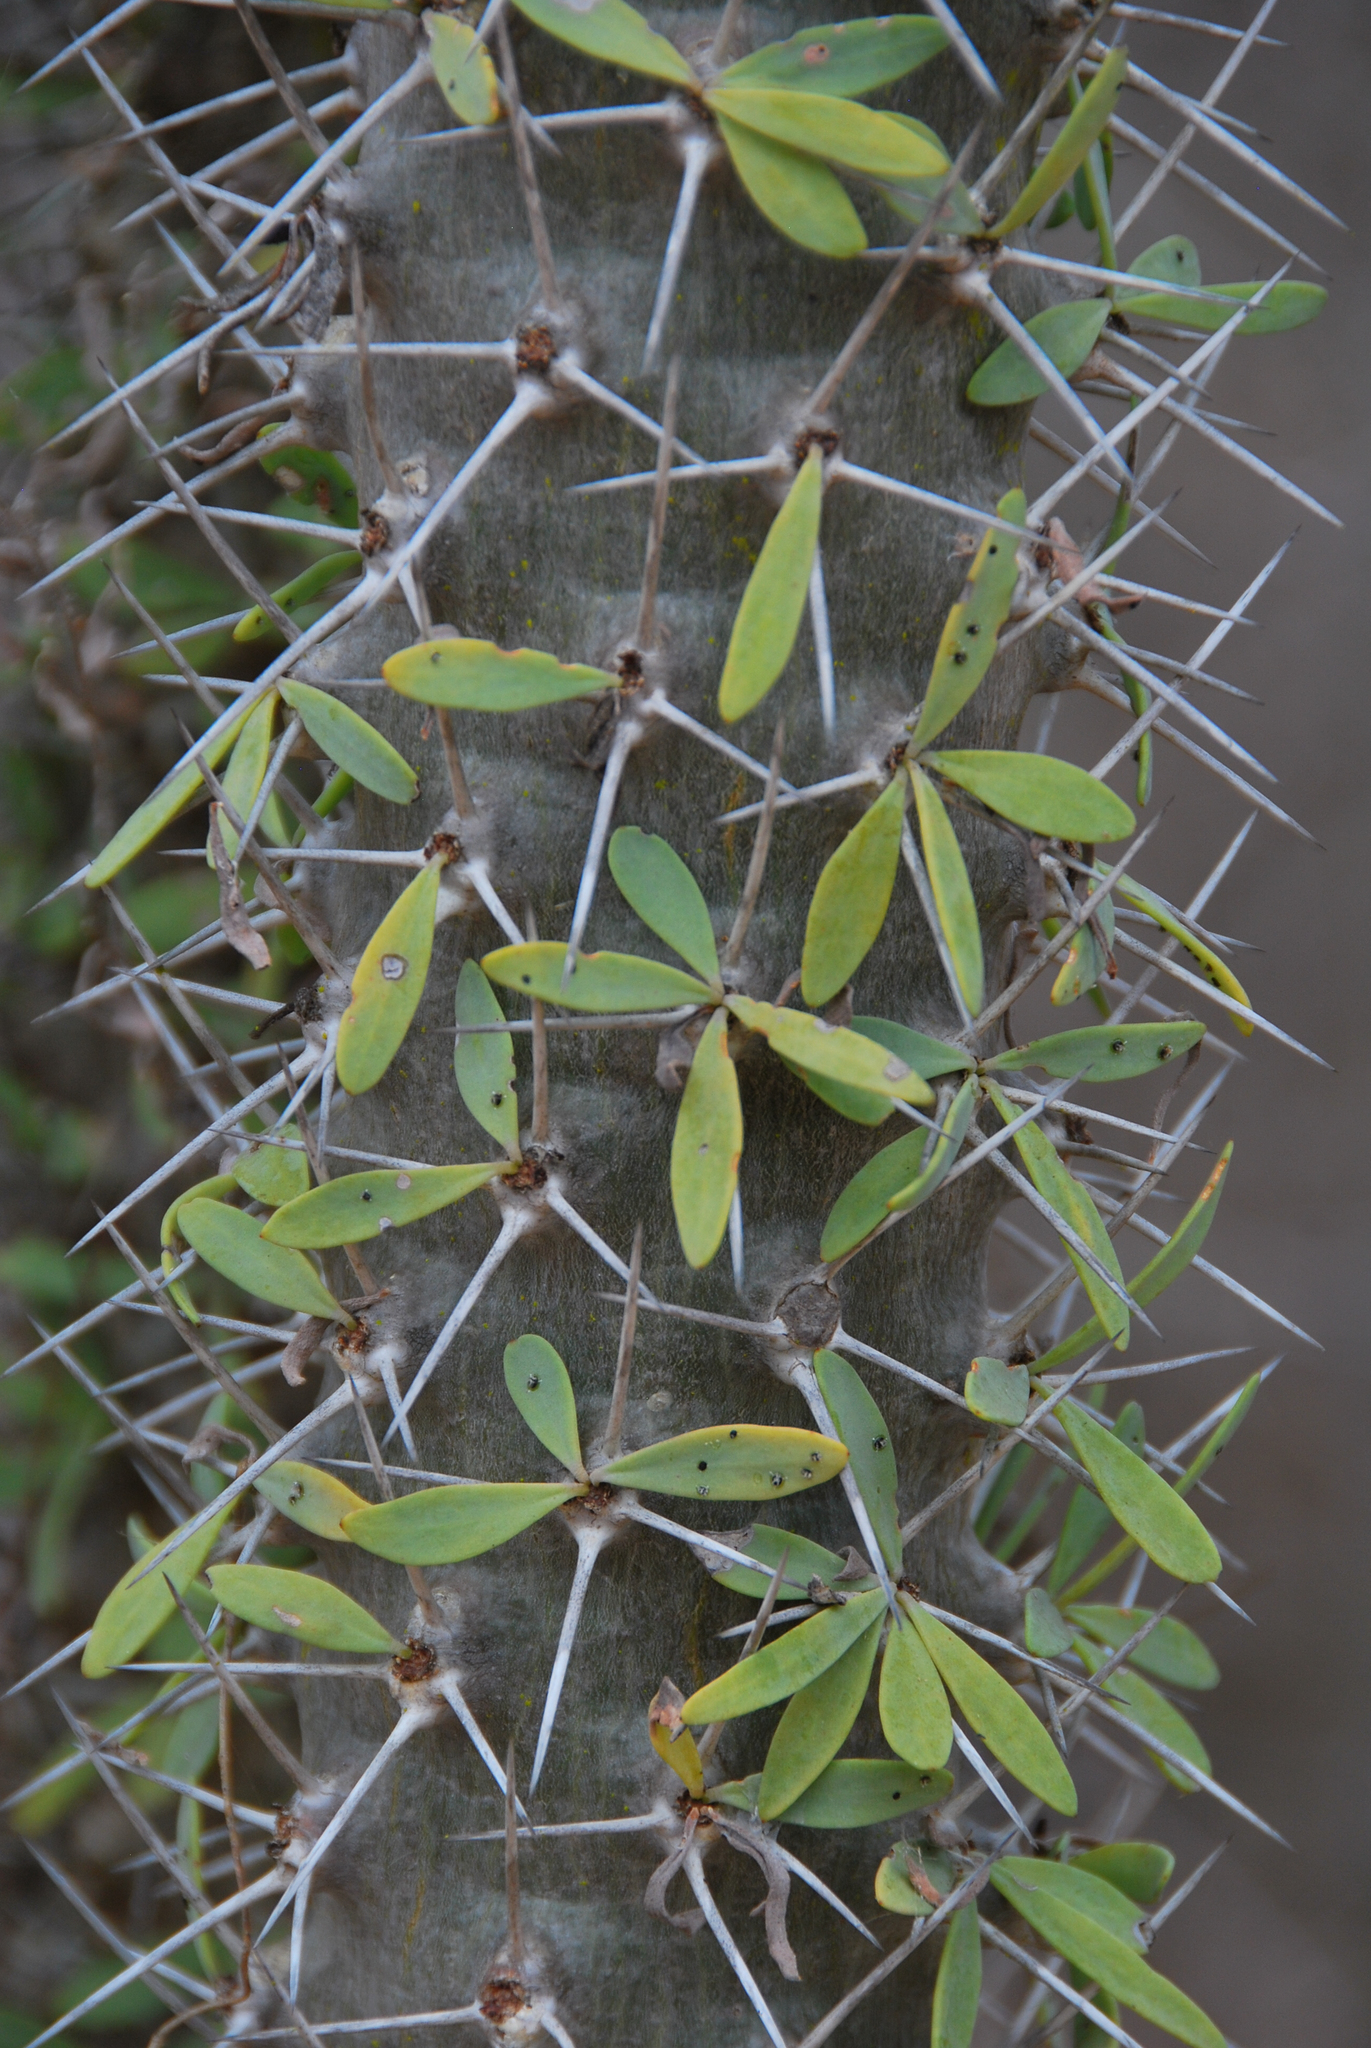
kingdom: Plantae
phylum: Tracheophyta
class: Magnoliopsida
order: Caryophyllales
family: Didiereaceae
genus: Didierea
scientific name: Didierea trollii
